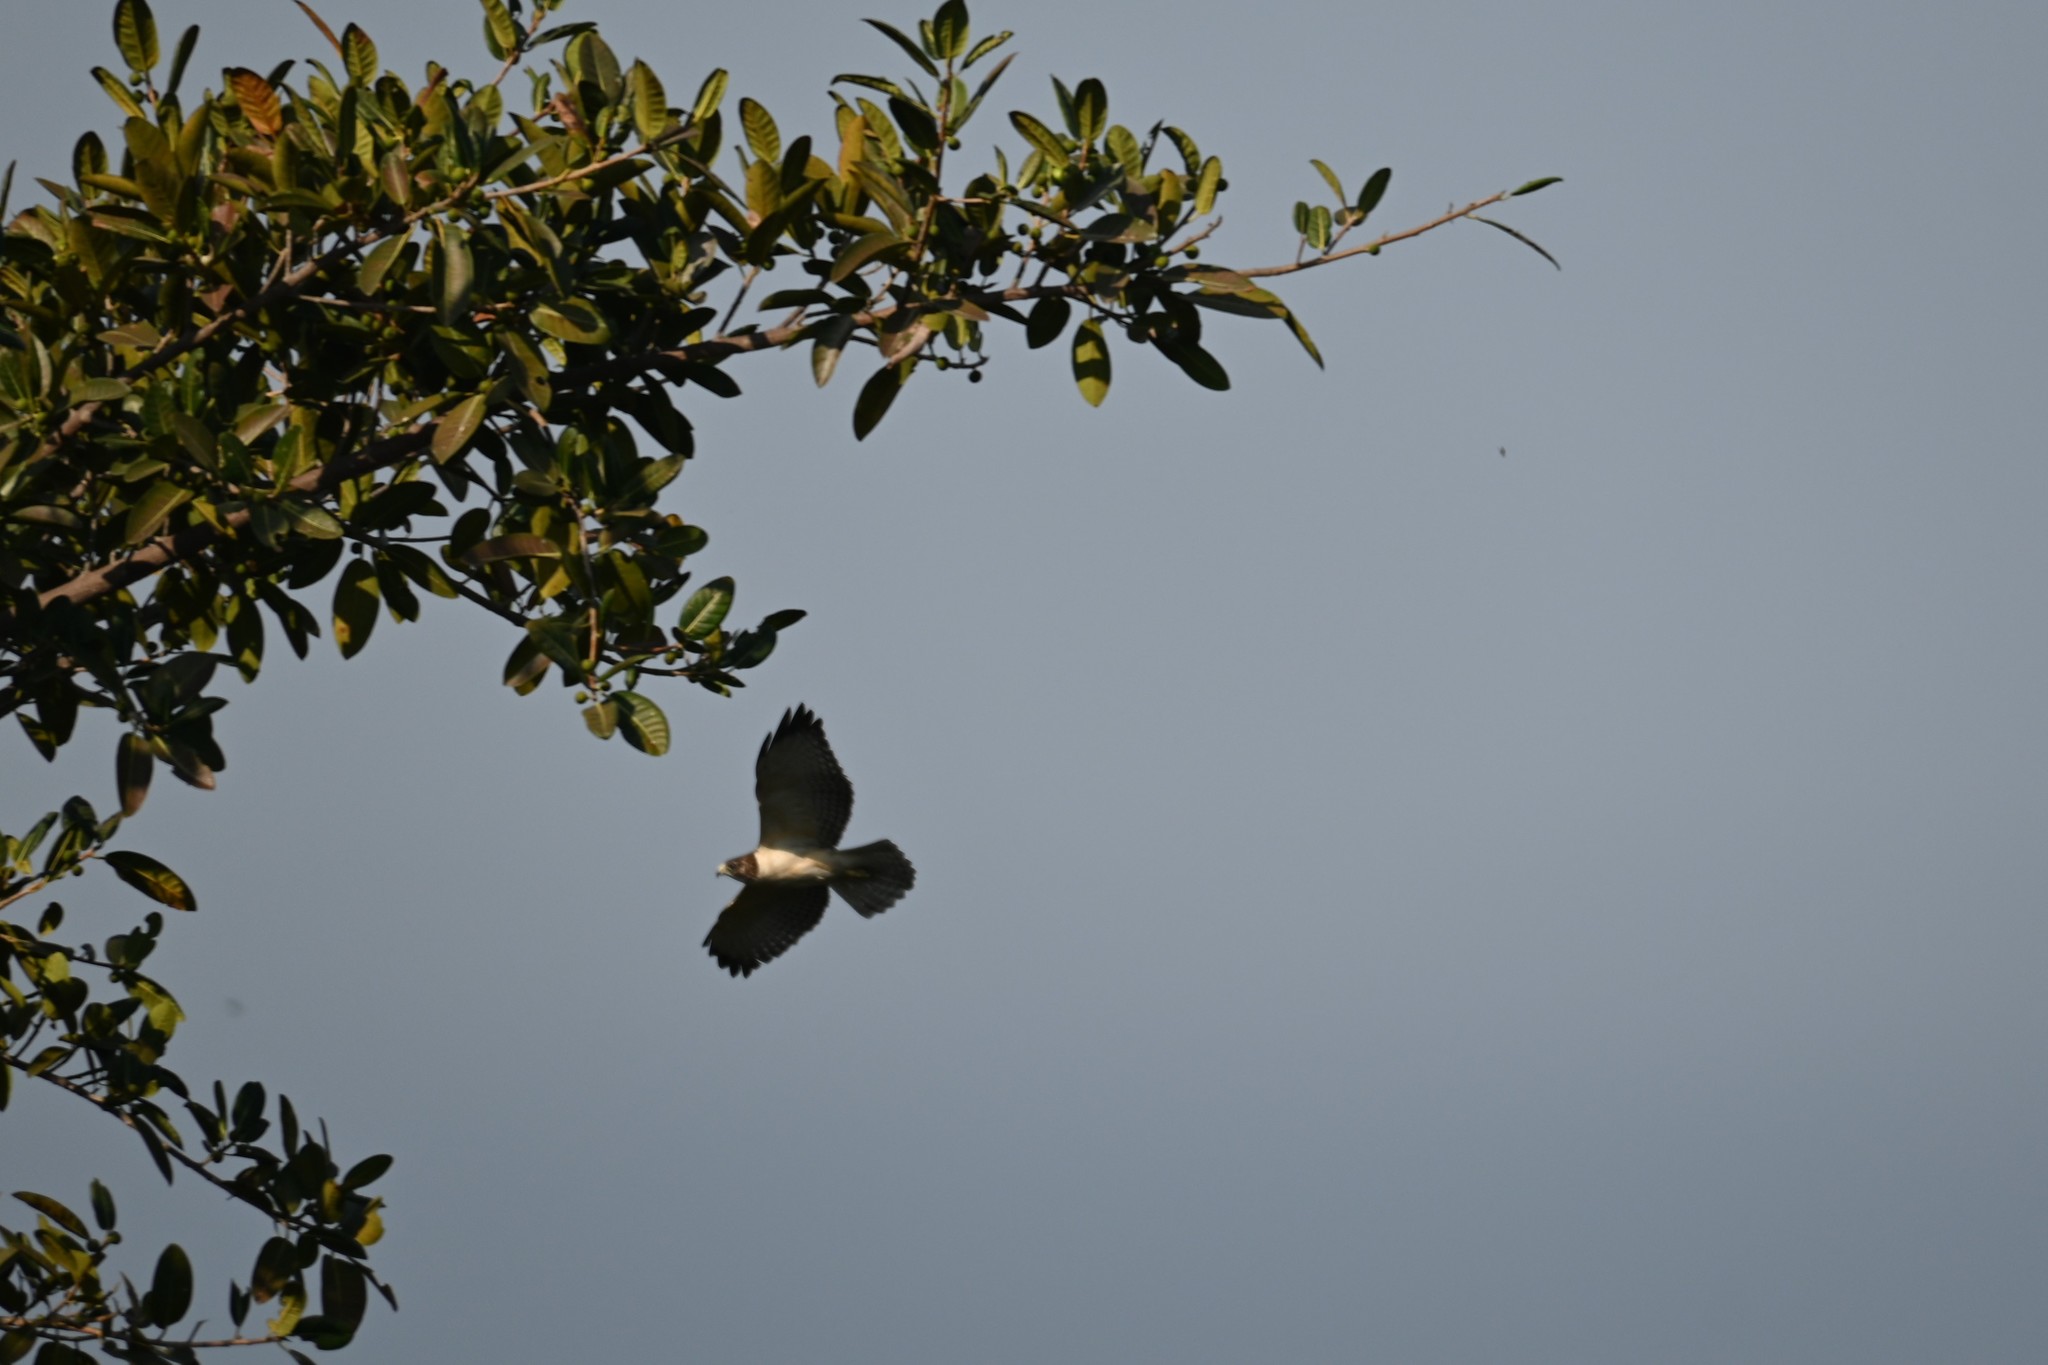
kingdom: Animalia
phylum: Chordata
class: Aves
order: Accipitriformes
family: Accipitridae
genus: Buteo
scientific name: Buteo brachyurus
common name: Short-tailed hawk
